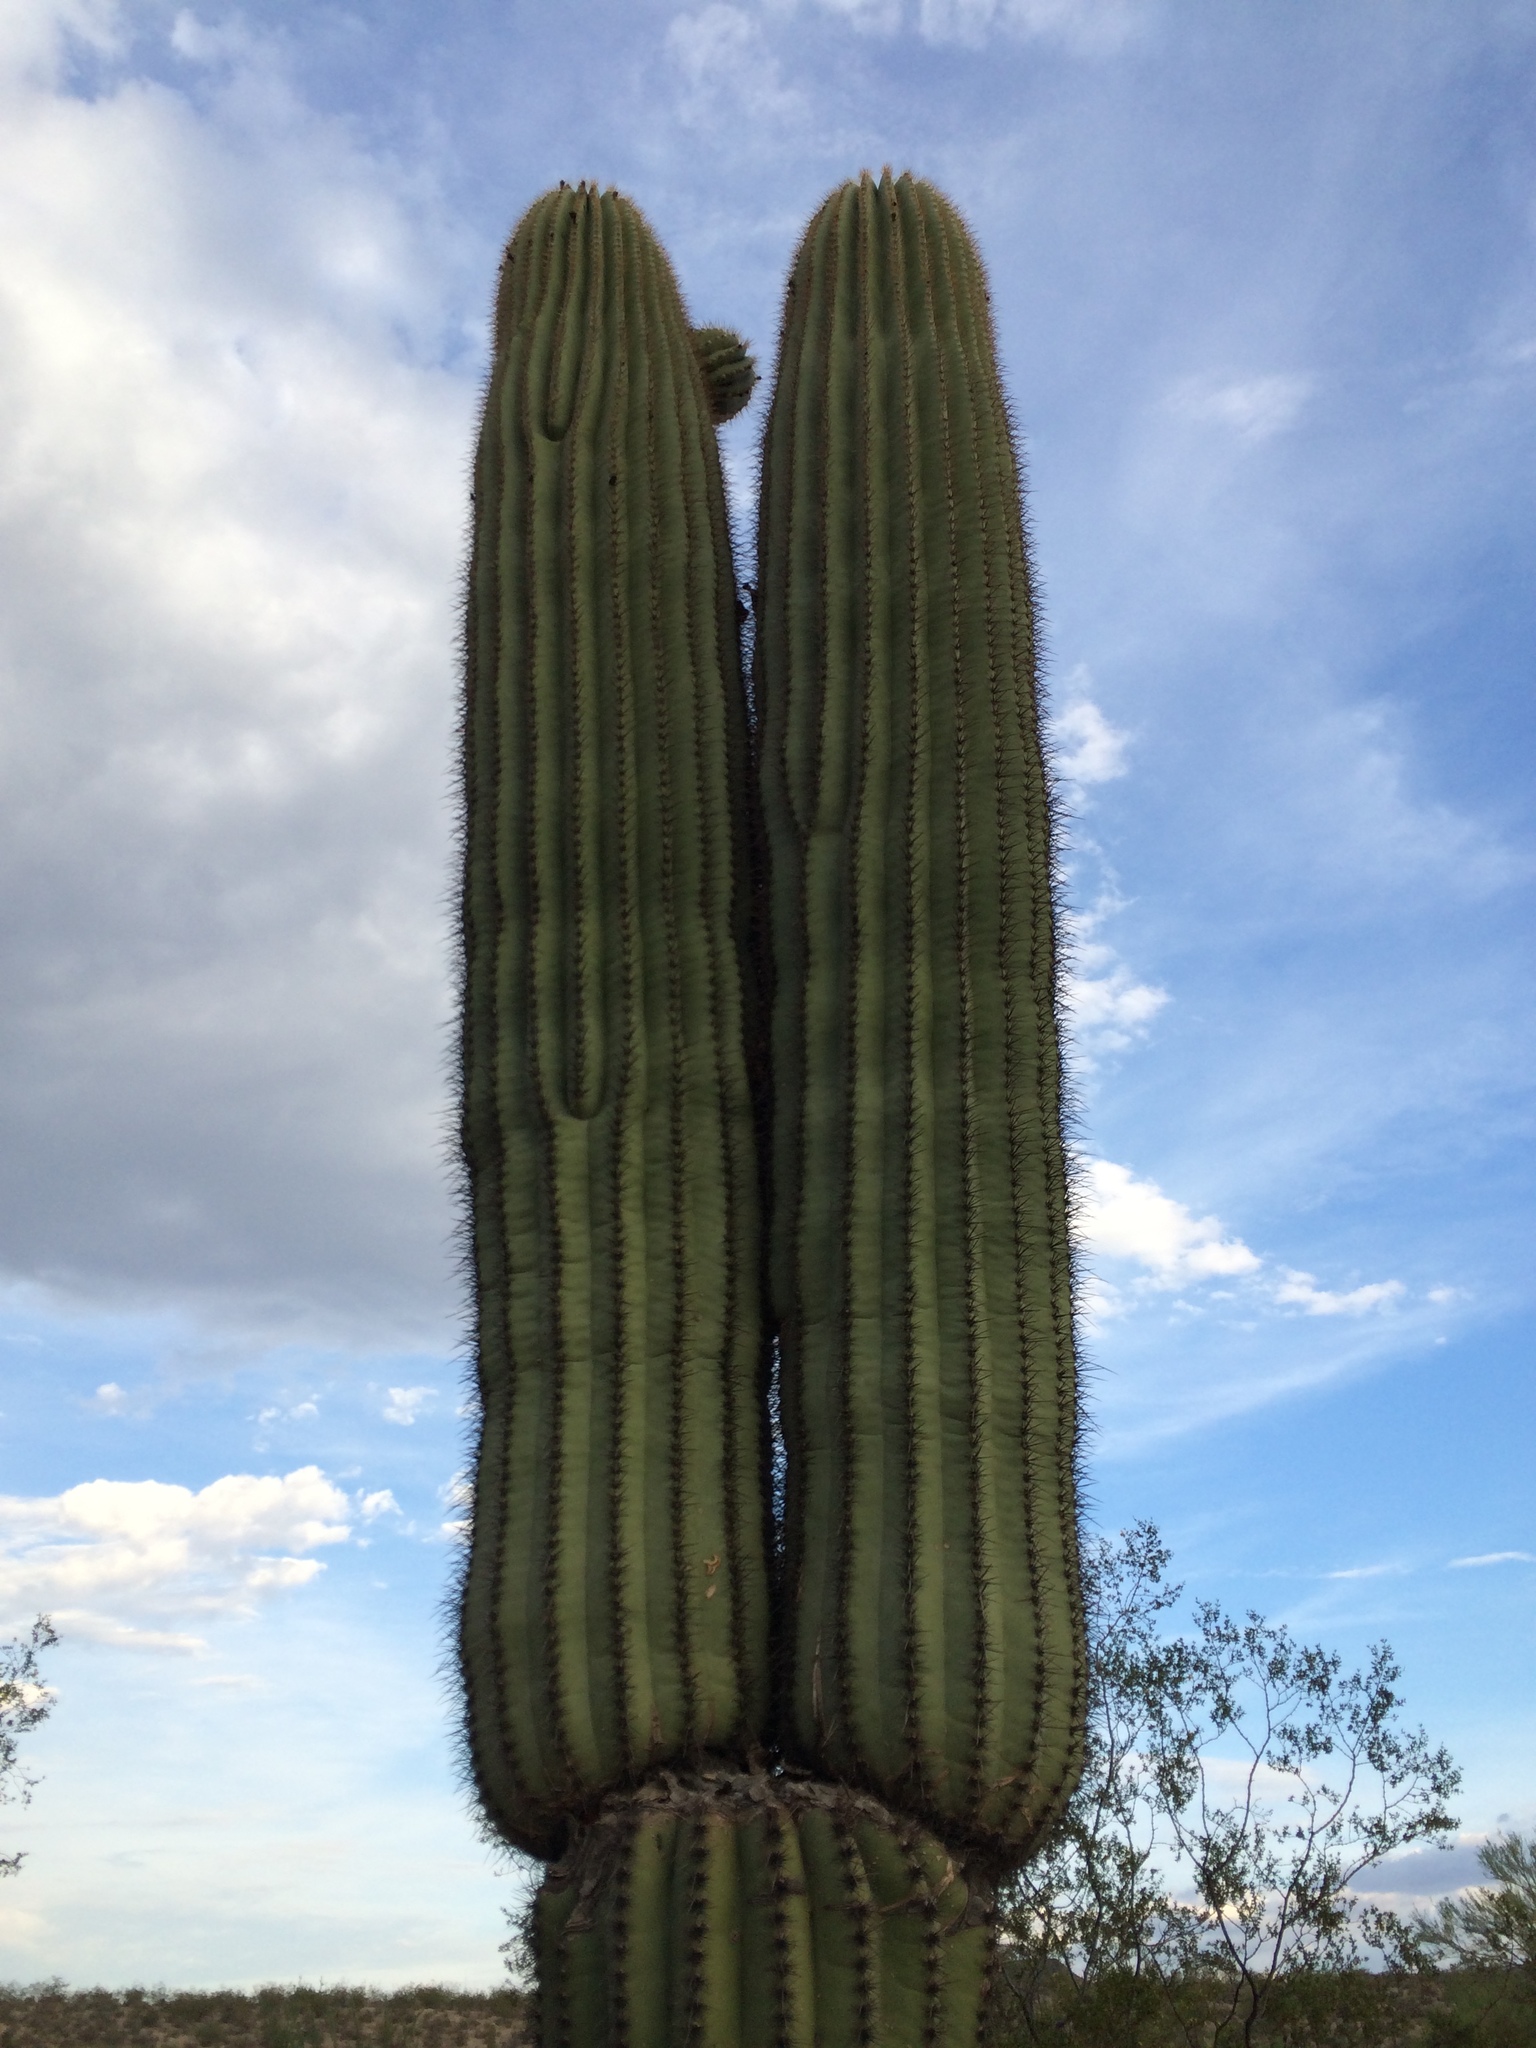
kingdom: Plantae
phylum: Tracheophyta
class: Magnoliopsida
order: Caryophyllales
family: Cactaceae
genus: Carnegiea
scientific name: Carnegiea gigantea
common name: Saguaro
